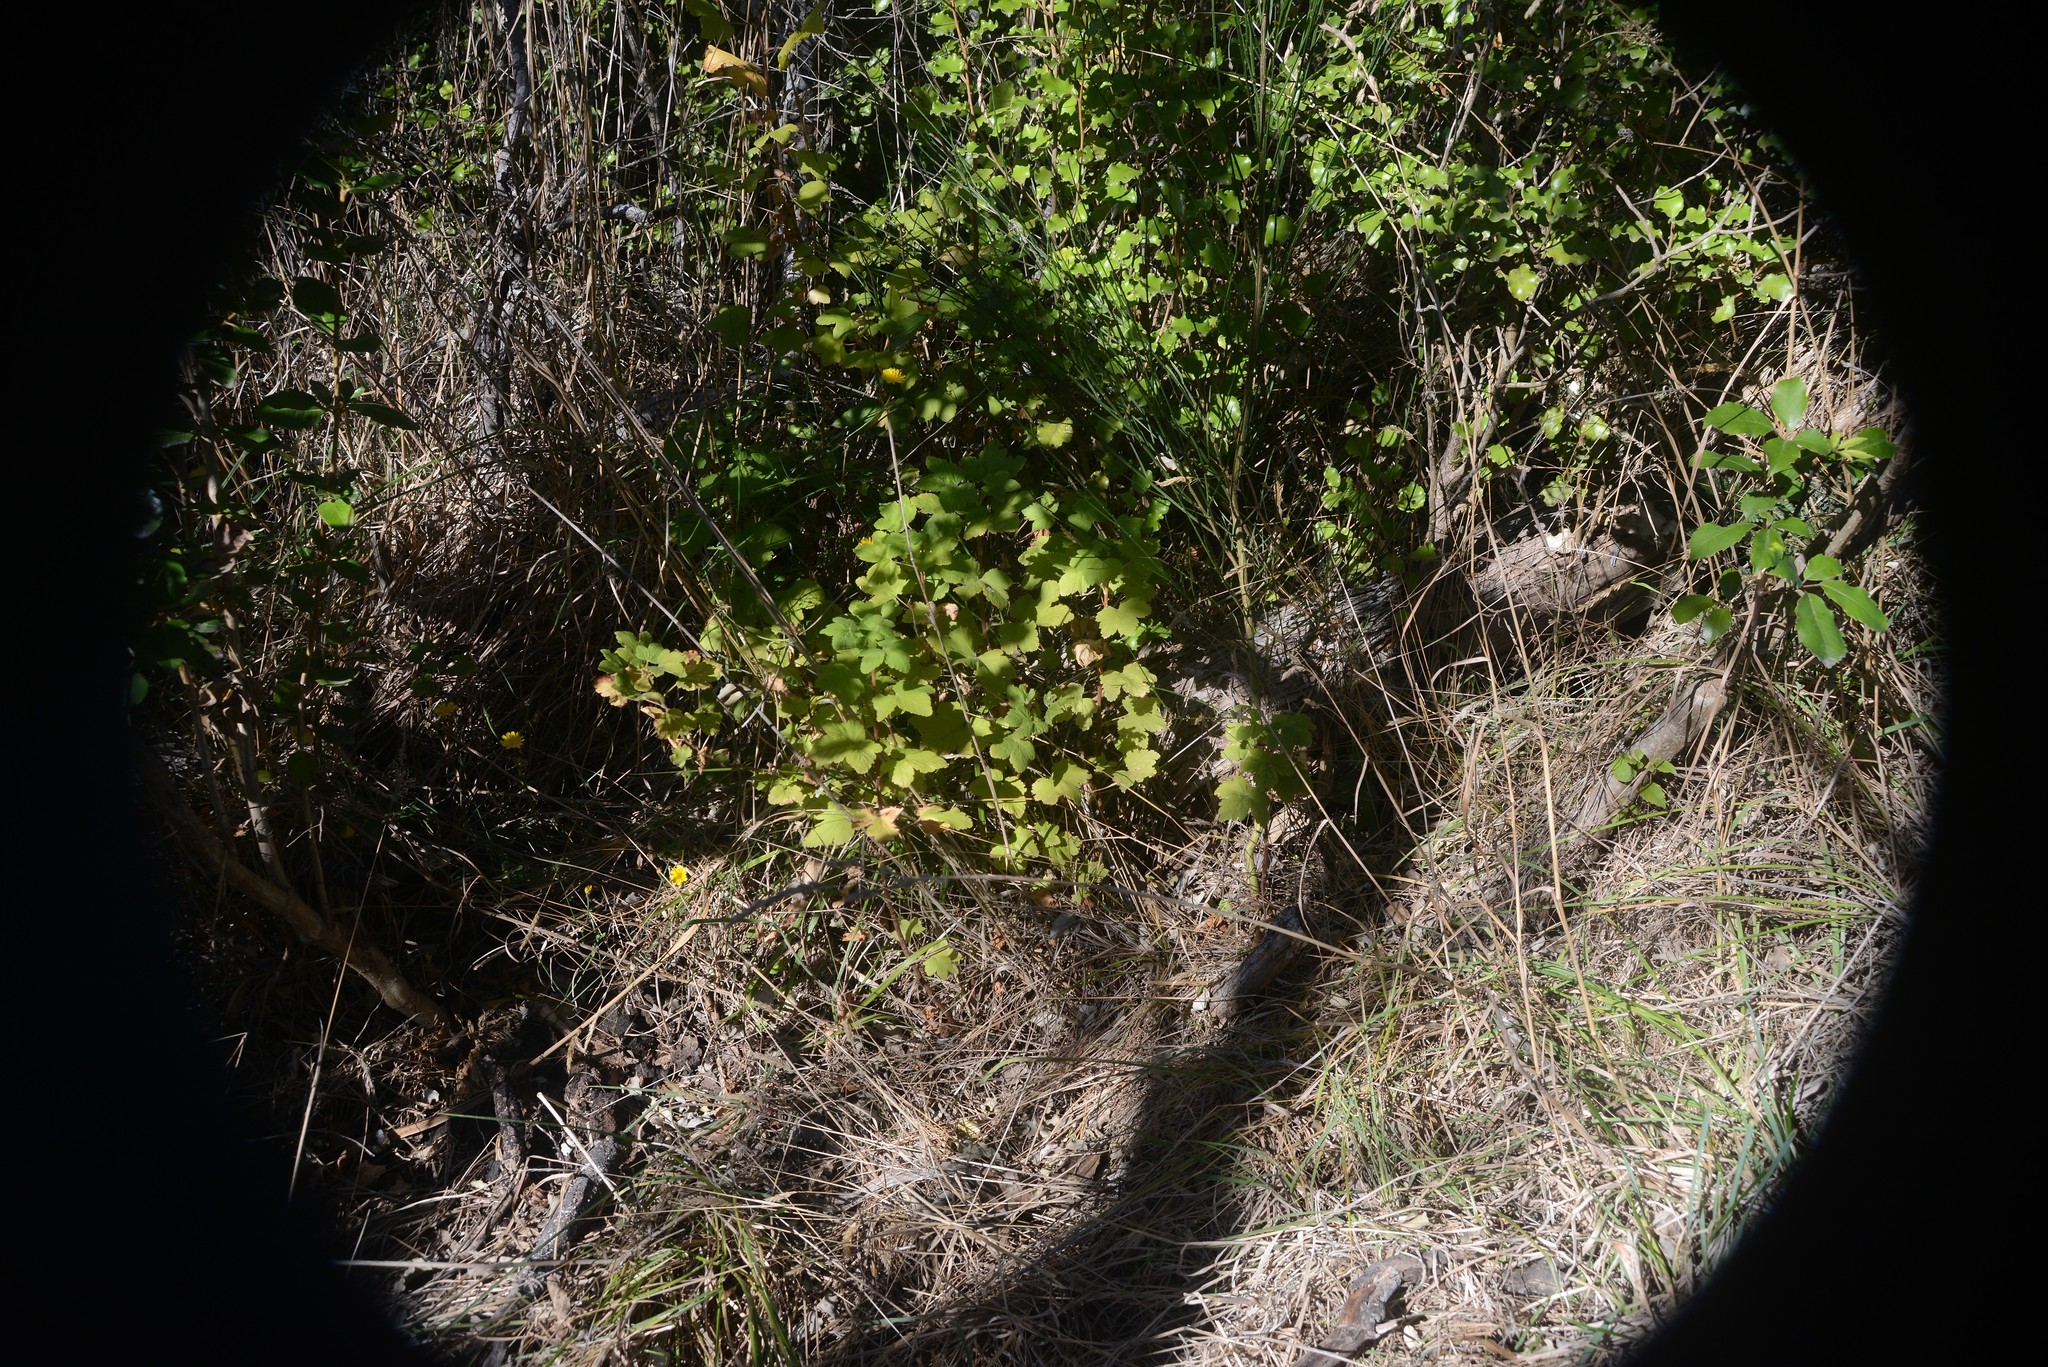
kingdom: Plantae
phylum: Tracheophyta
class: Magnoliopsida
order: Saxifragales
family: Grossulariaceae
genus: Ribes
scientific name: Ribes sanguineum
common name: Flowering currant
